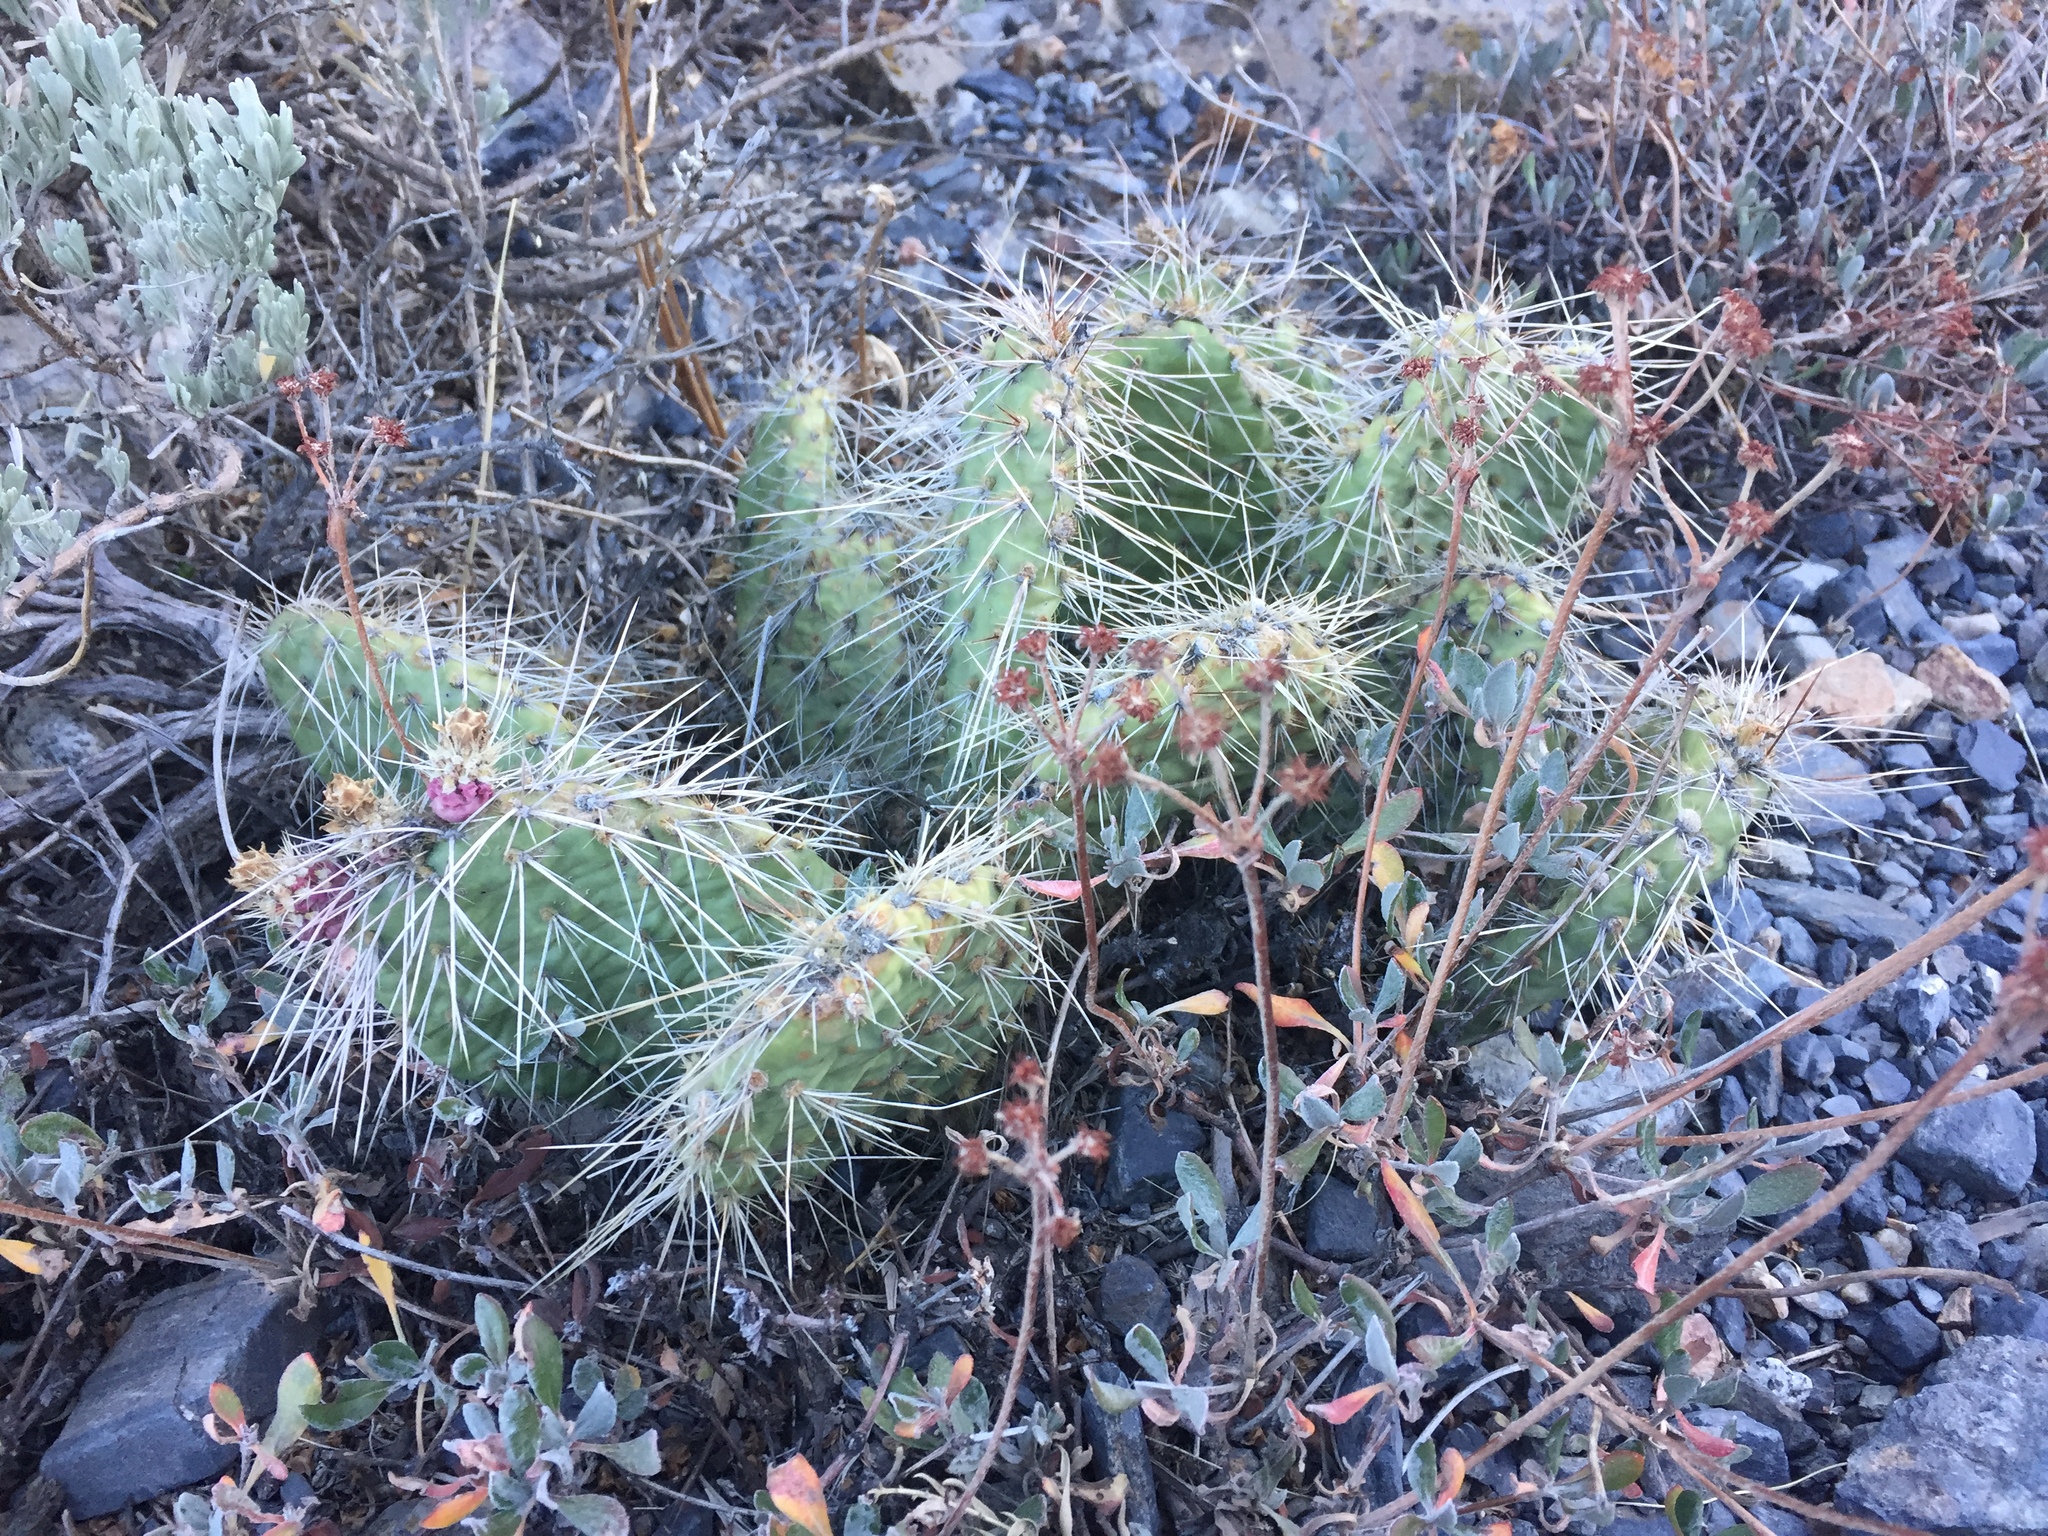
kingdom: Plantae
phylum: Tracheophyta
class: Magnoliopsida
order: Caryophyllales
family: Cactaceae
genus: Opuntia
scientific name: Opuntia polyacantha
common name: Plains prickly-pear
